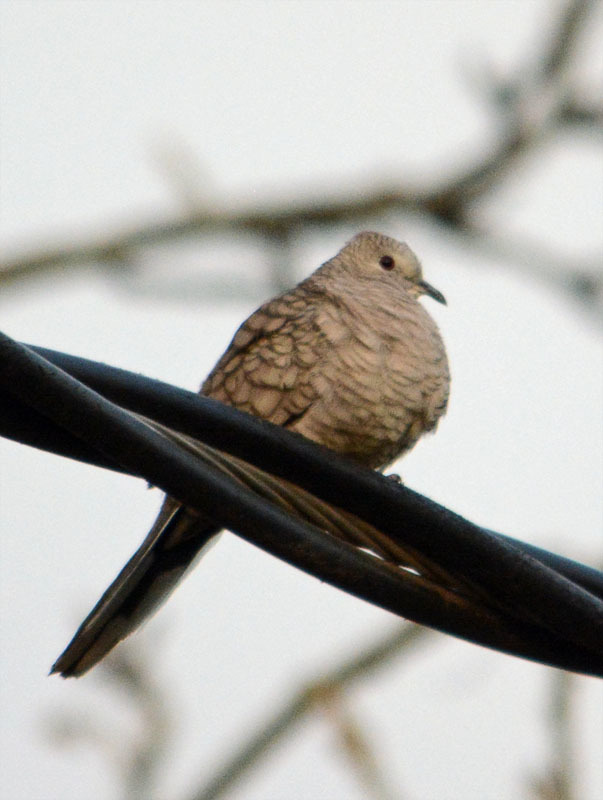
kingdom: Animalia
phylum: Chordata
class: Aves
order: Columbiformes
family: Columbidae
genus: Columbina
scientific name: Columbina inca
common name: Inca dove
